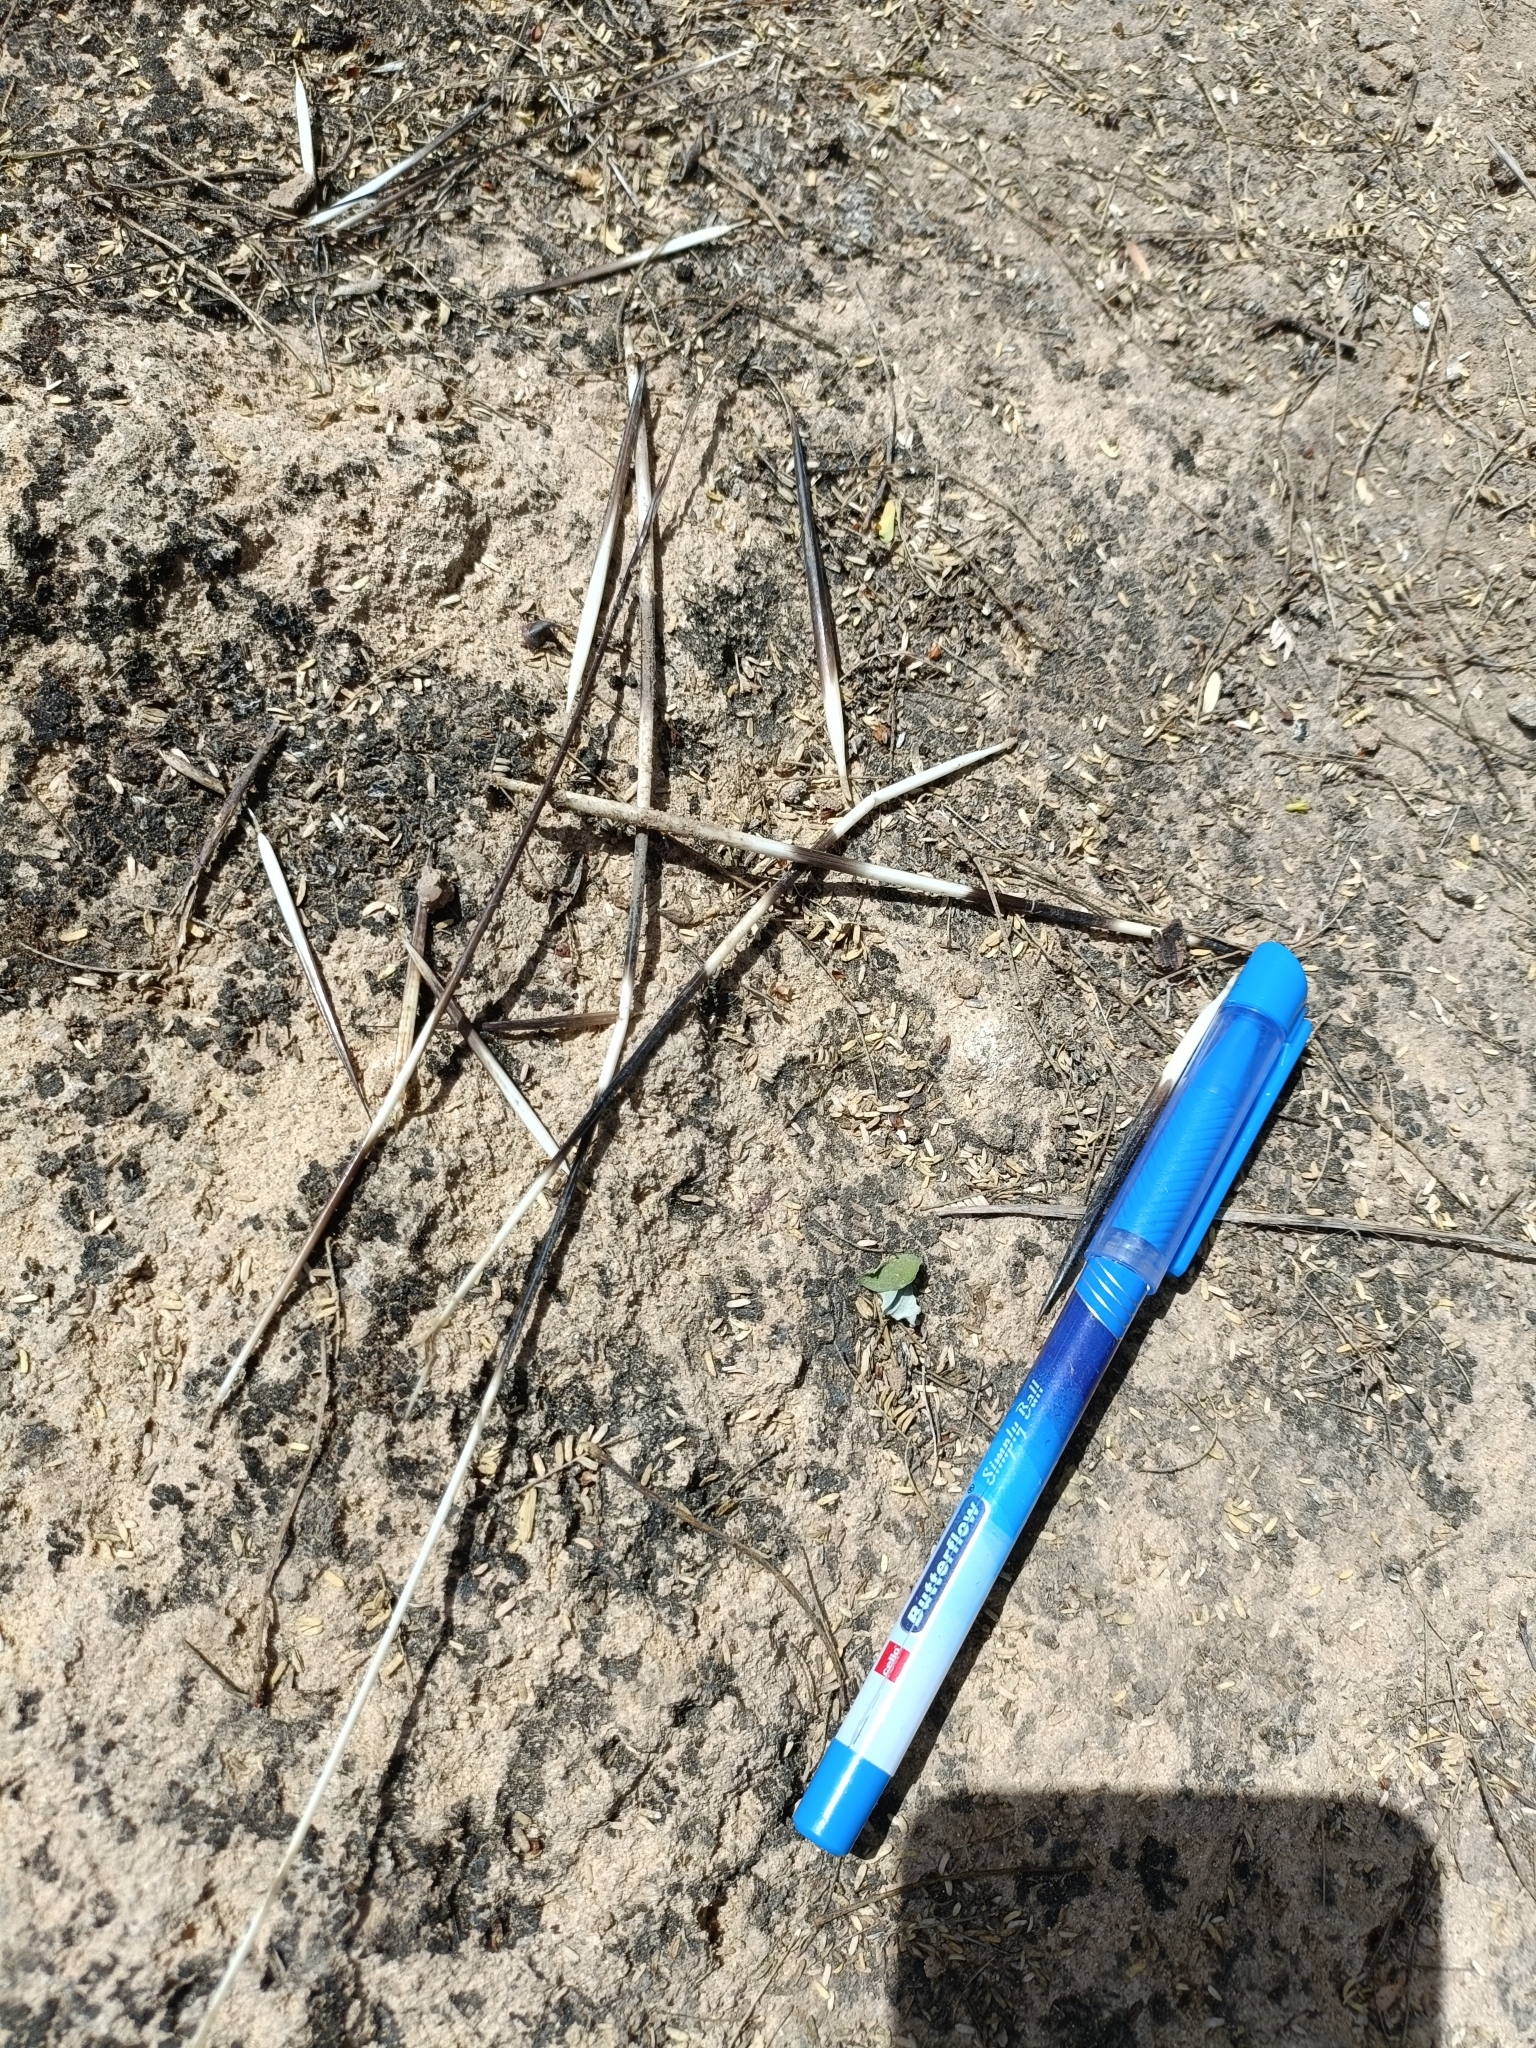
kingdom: Animalia
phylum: Chordata
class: Mammalia
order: Rodentia
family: Hystricidae
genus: Hystrix
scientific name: Hystrix indica
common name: Indian crested porcupine
